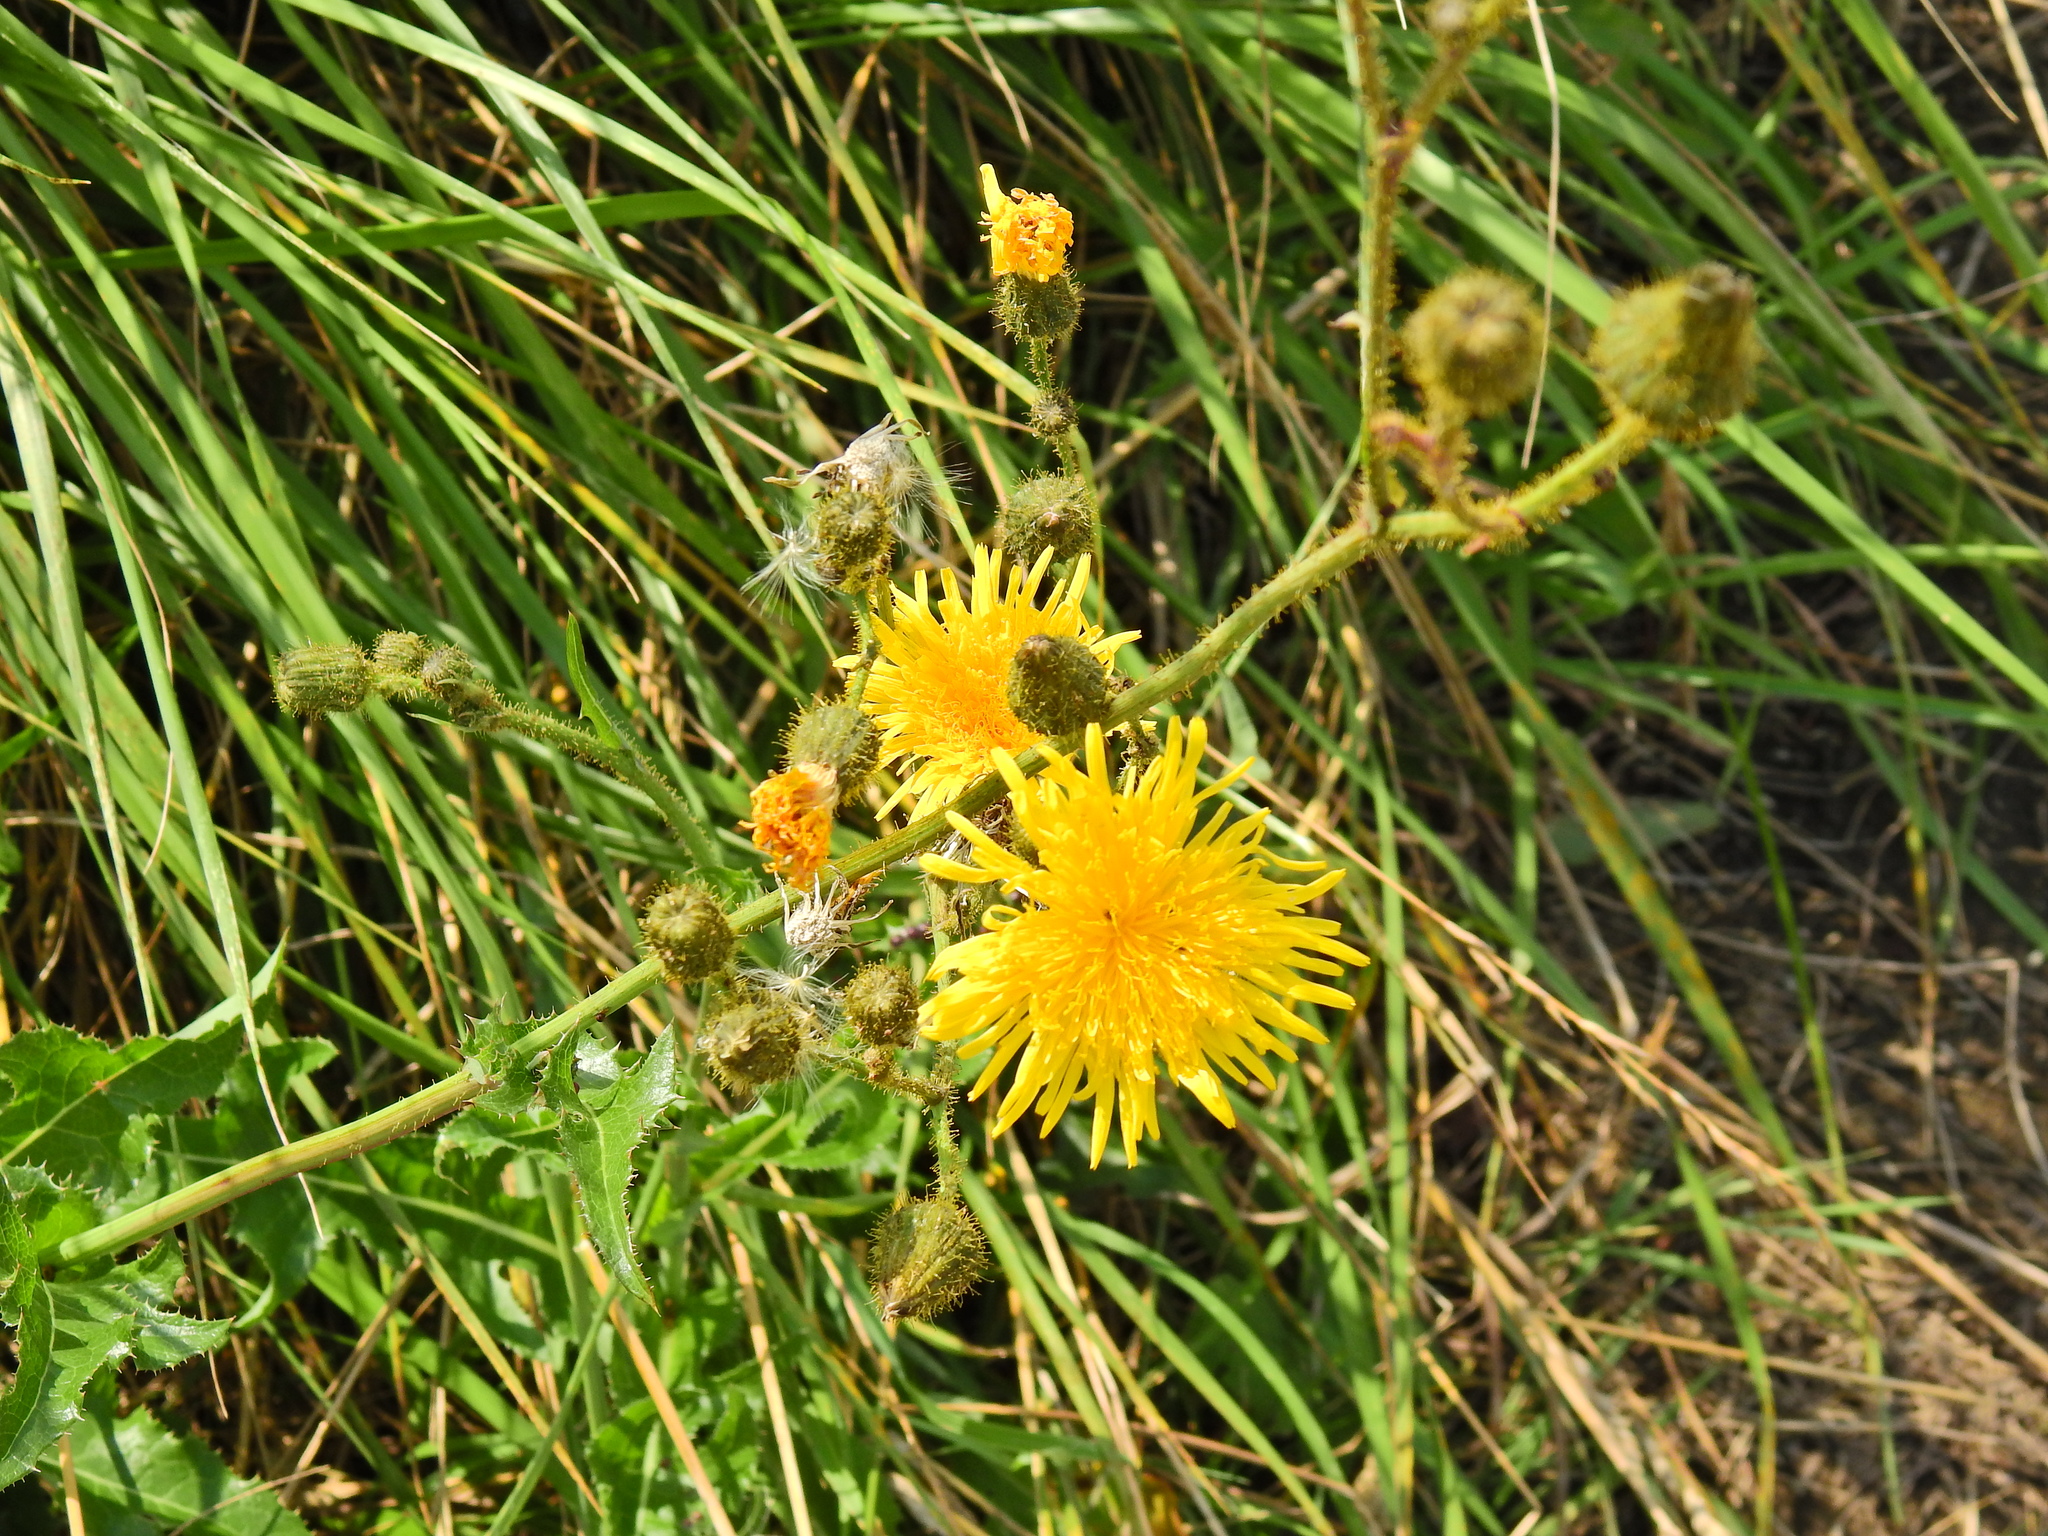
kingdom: Plantae
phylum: Tracheophyta
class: Magnoliopsida
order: Asterales
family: Asteraceae
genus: Sonchus
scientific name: Sonchus arvensis
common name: Perennial sow-thistle
